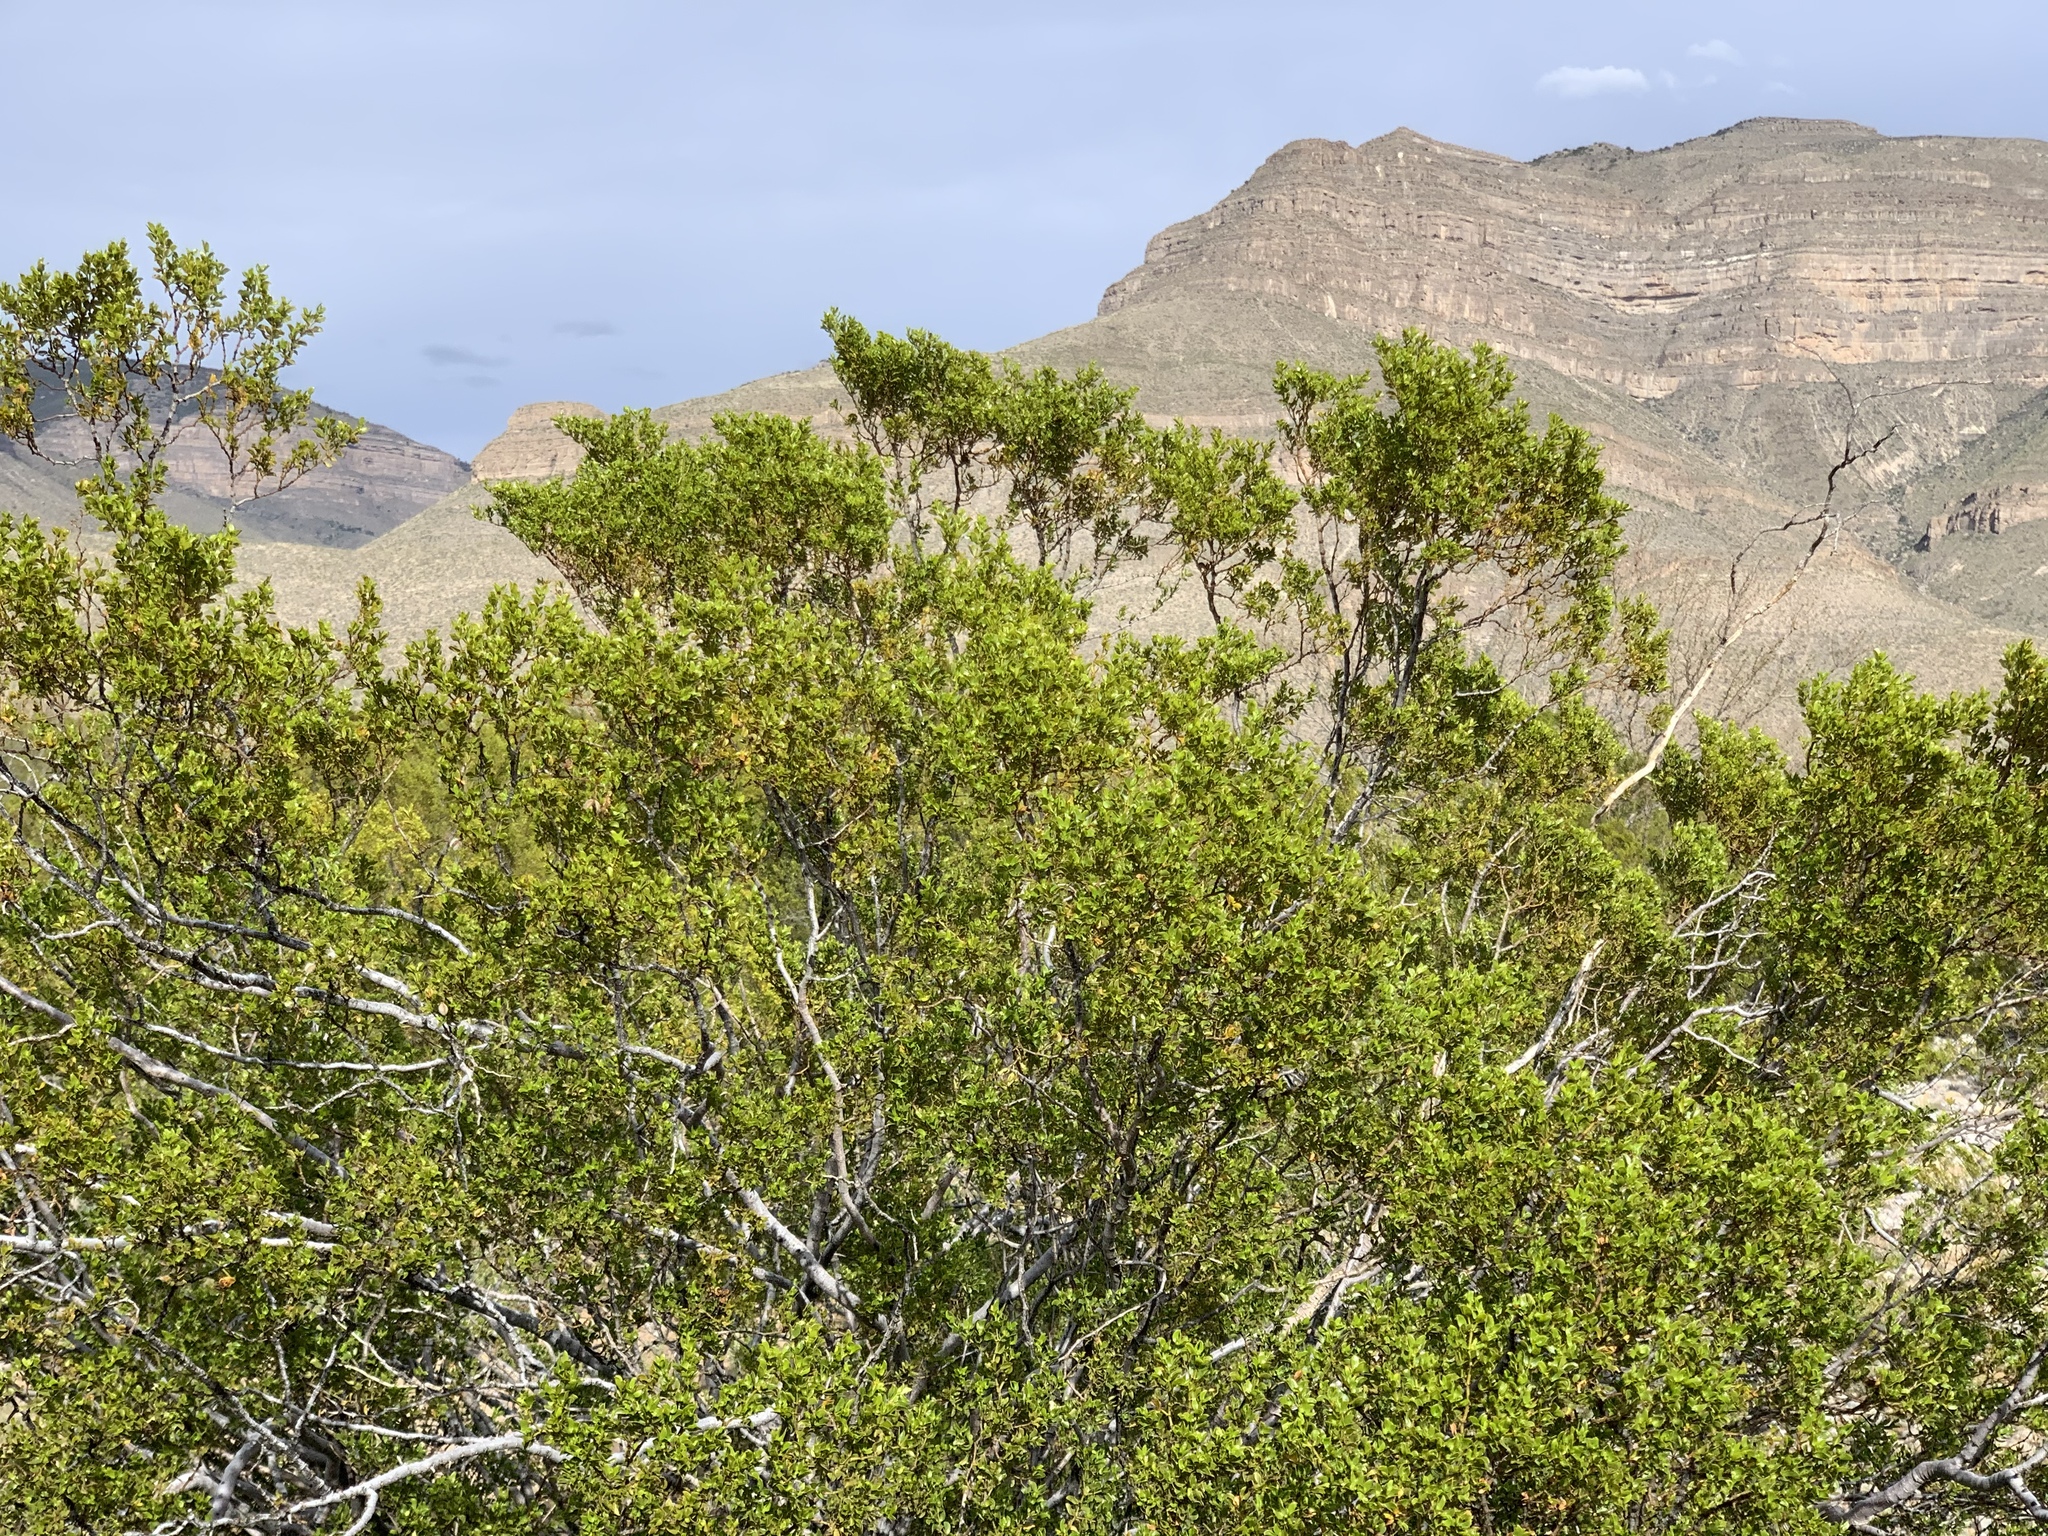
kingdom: Plantae
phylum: Tracheophyta
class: Magnoliopsida
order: Zygophyllales
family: Zygophyllaceae
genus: Larrea
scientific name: Larrea tridentata
